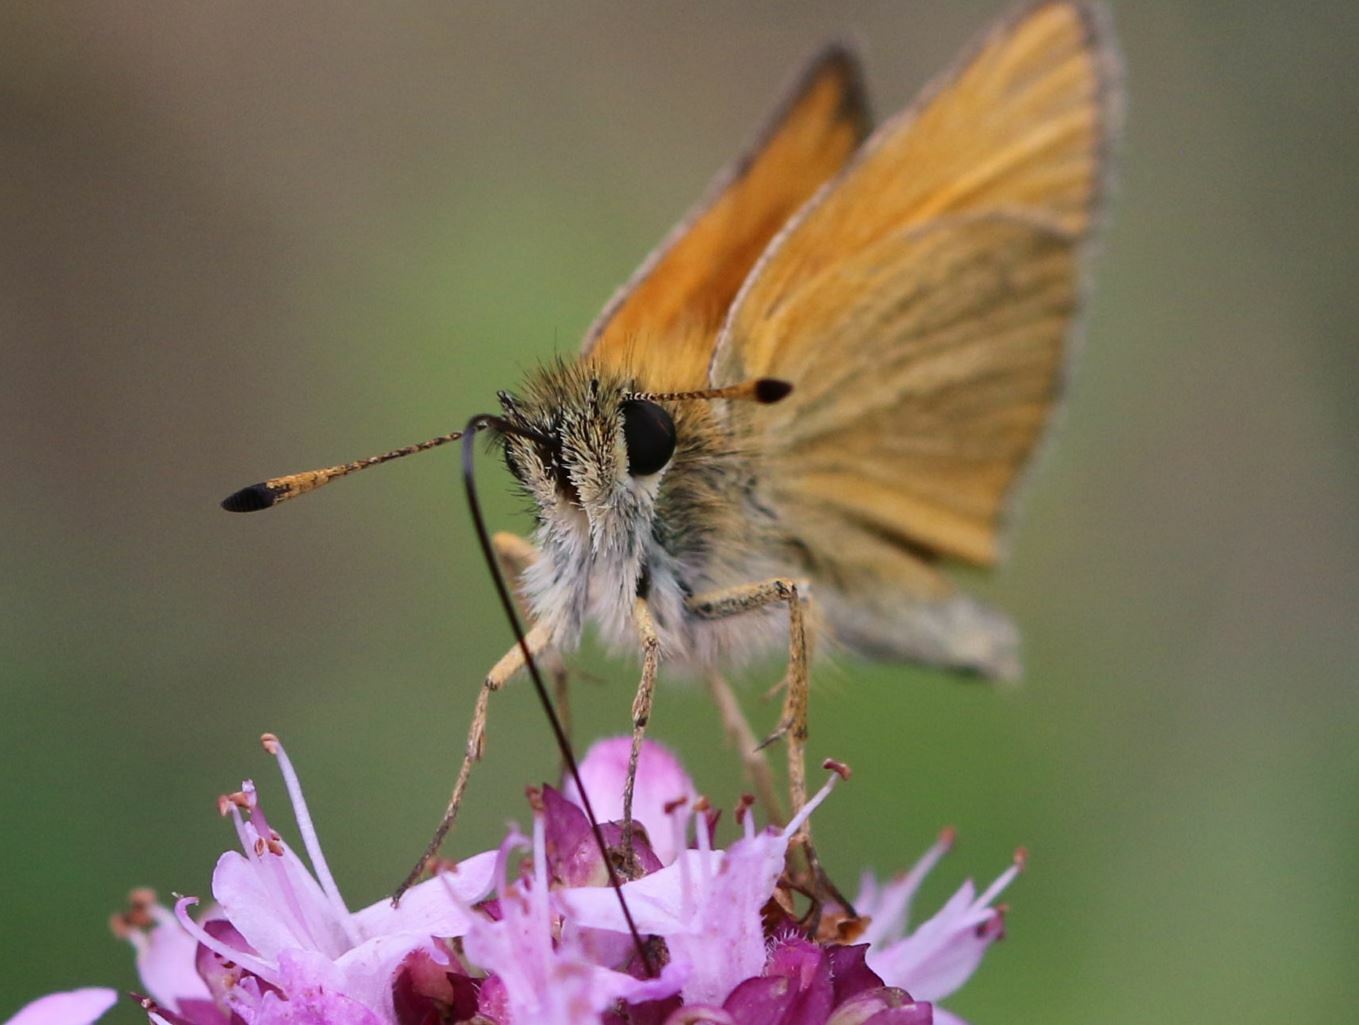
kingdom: Animalia
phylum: Arthropoda
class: Insecta
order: Lepidoptera
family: Hesperiidae
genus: Thymelicus
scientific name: Thymelicus lineola
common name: Essex skipper
